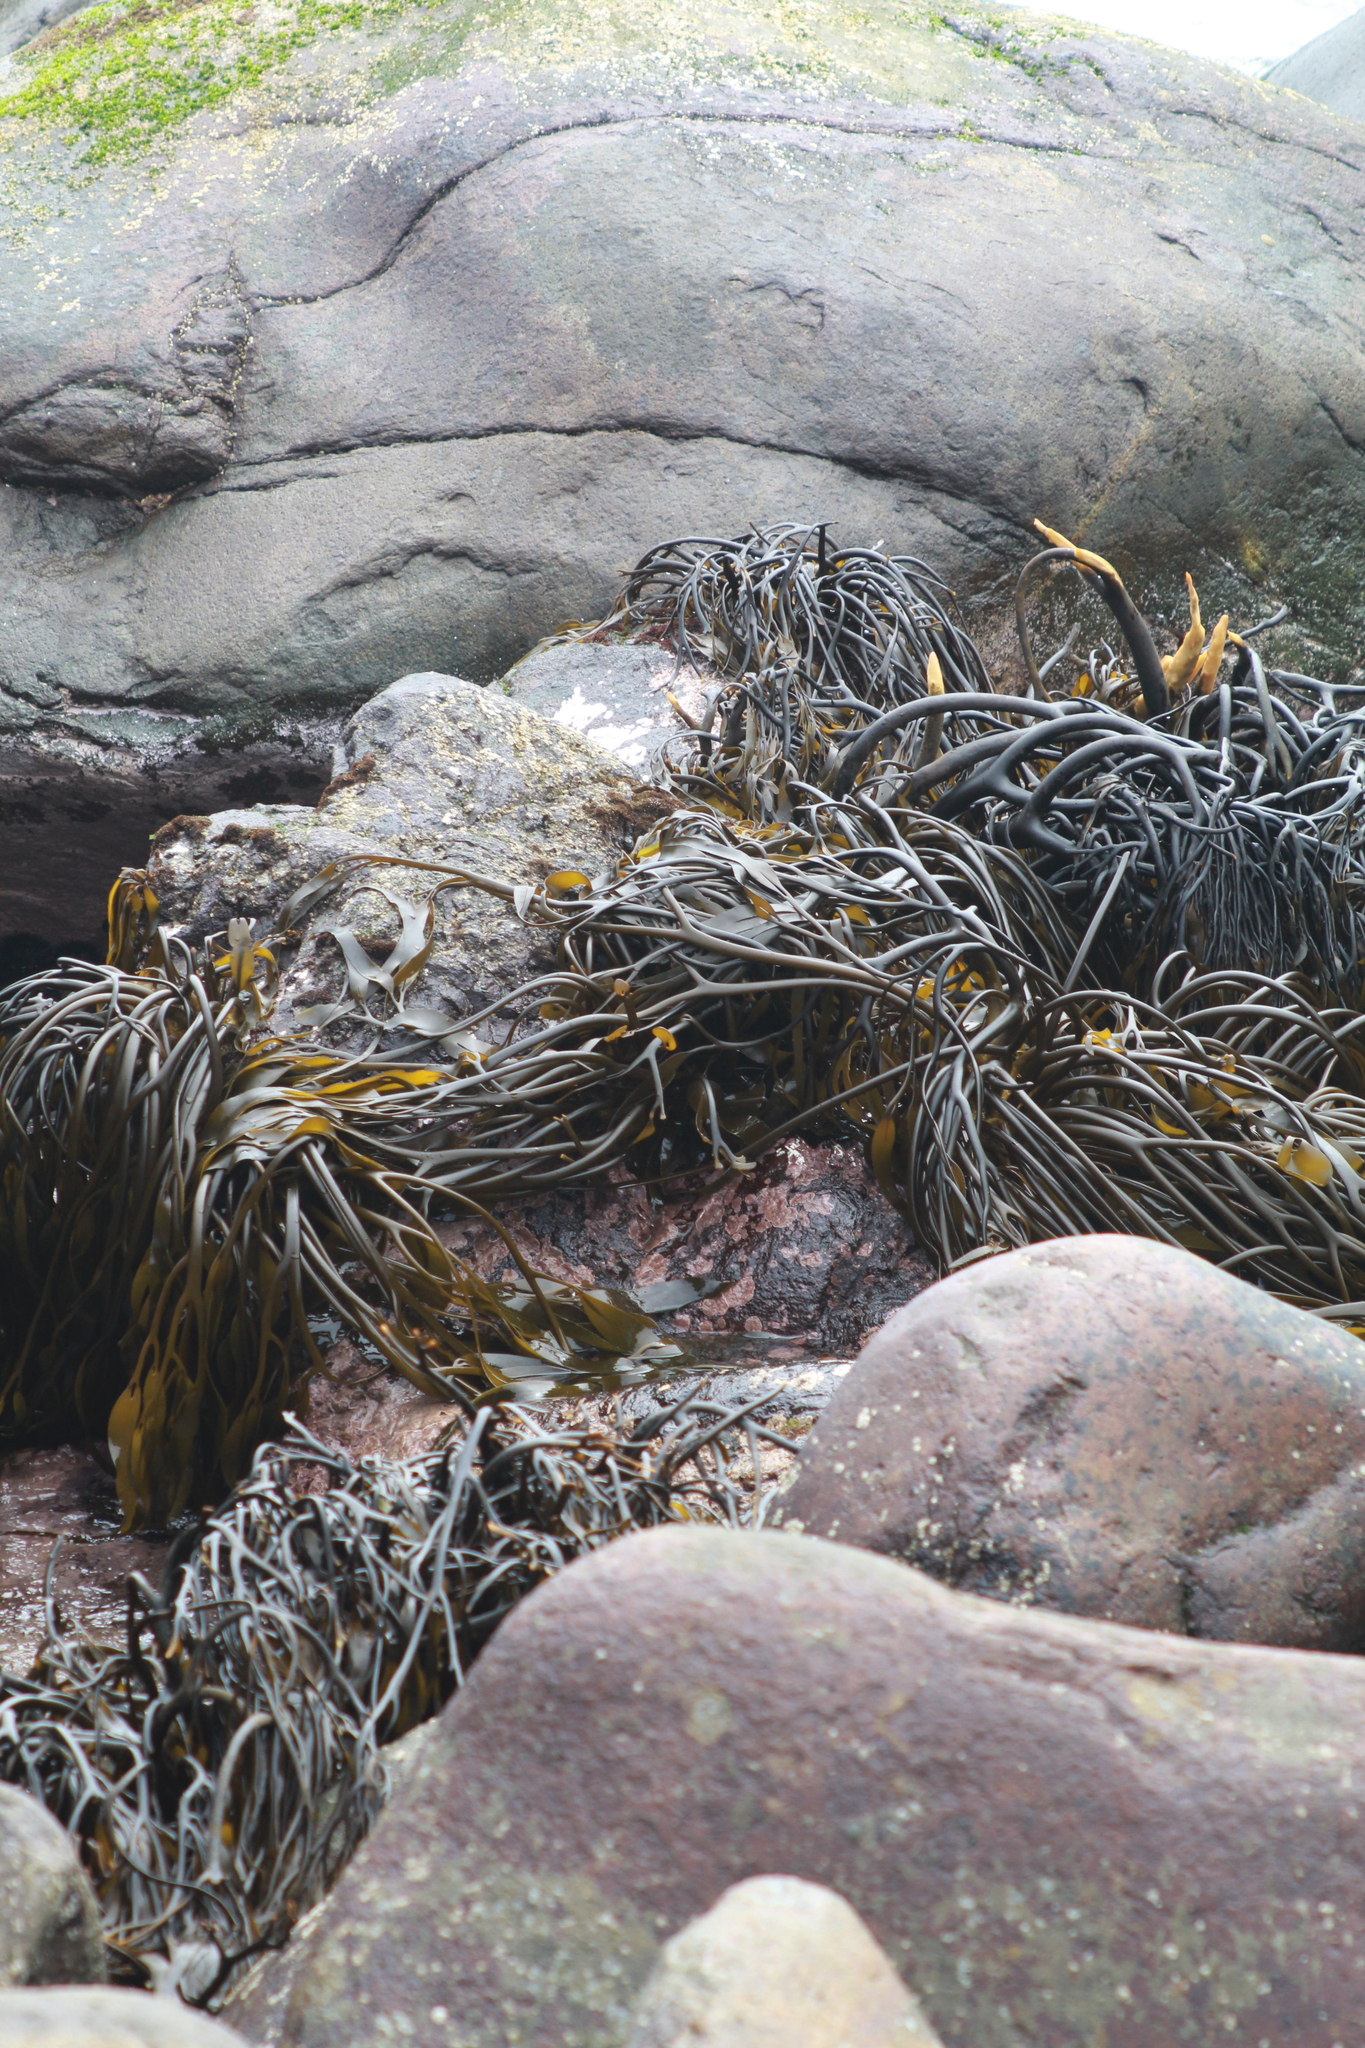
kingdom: Chromista
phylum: Ochrophyta
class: Phaeophyceae
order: Laminariales
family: Lessoniaceae
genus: Lessonia
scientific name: Lessonia
